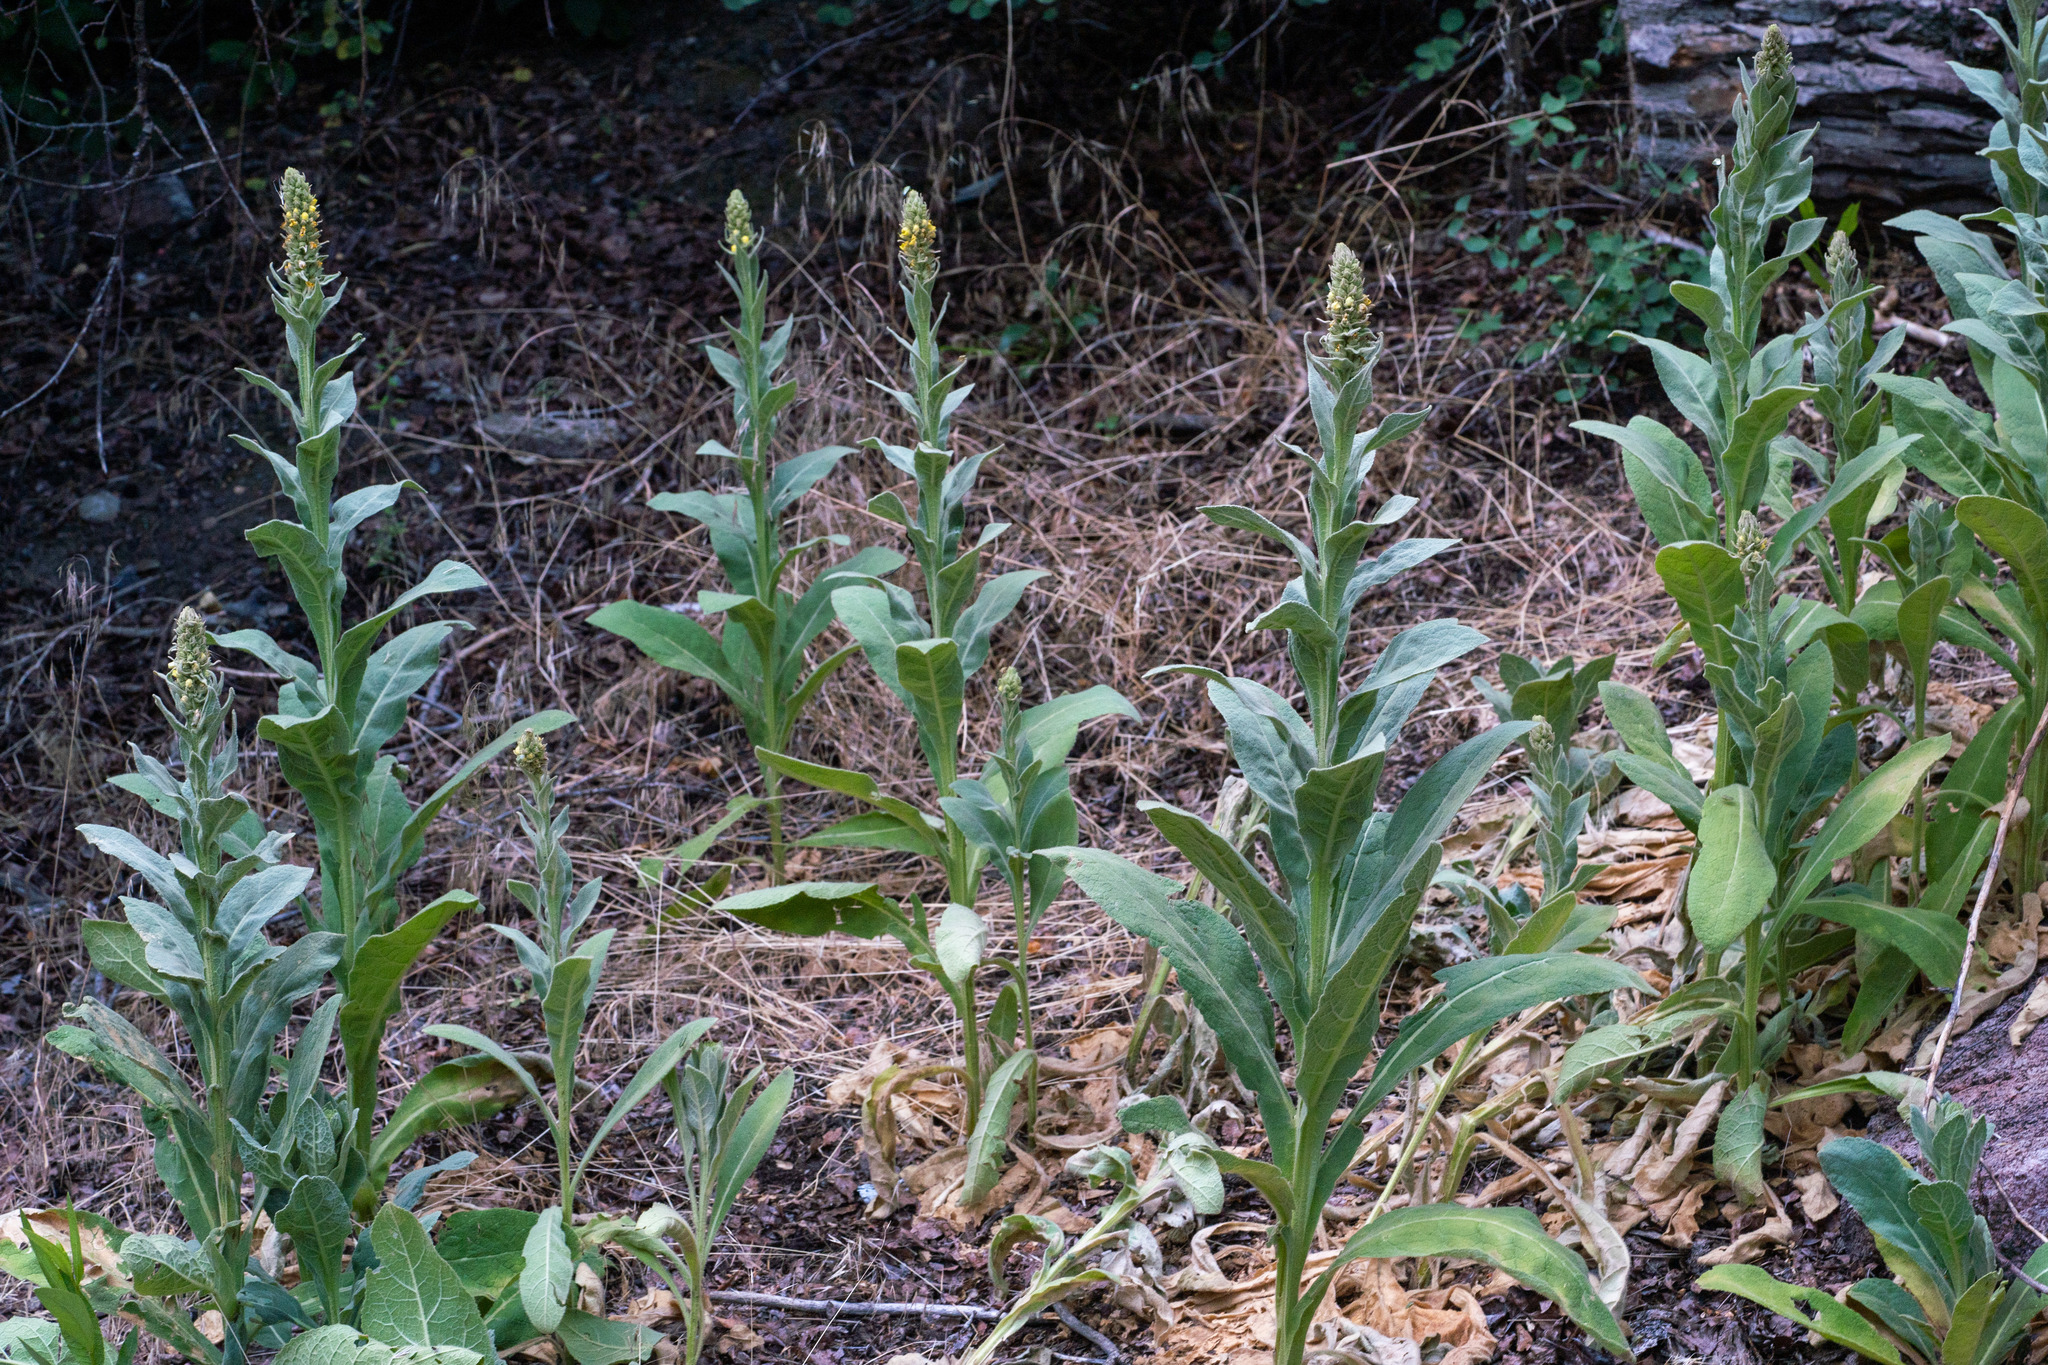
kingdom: Plantae
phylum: Tracheophyta
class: Magnoliopsida
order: Lamiales
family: Scrophulariaceae
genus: Verbascum
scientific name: Verbascum thapsus
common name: Common mullein
